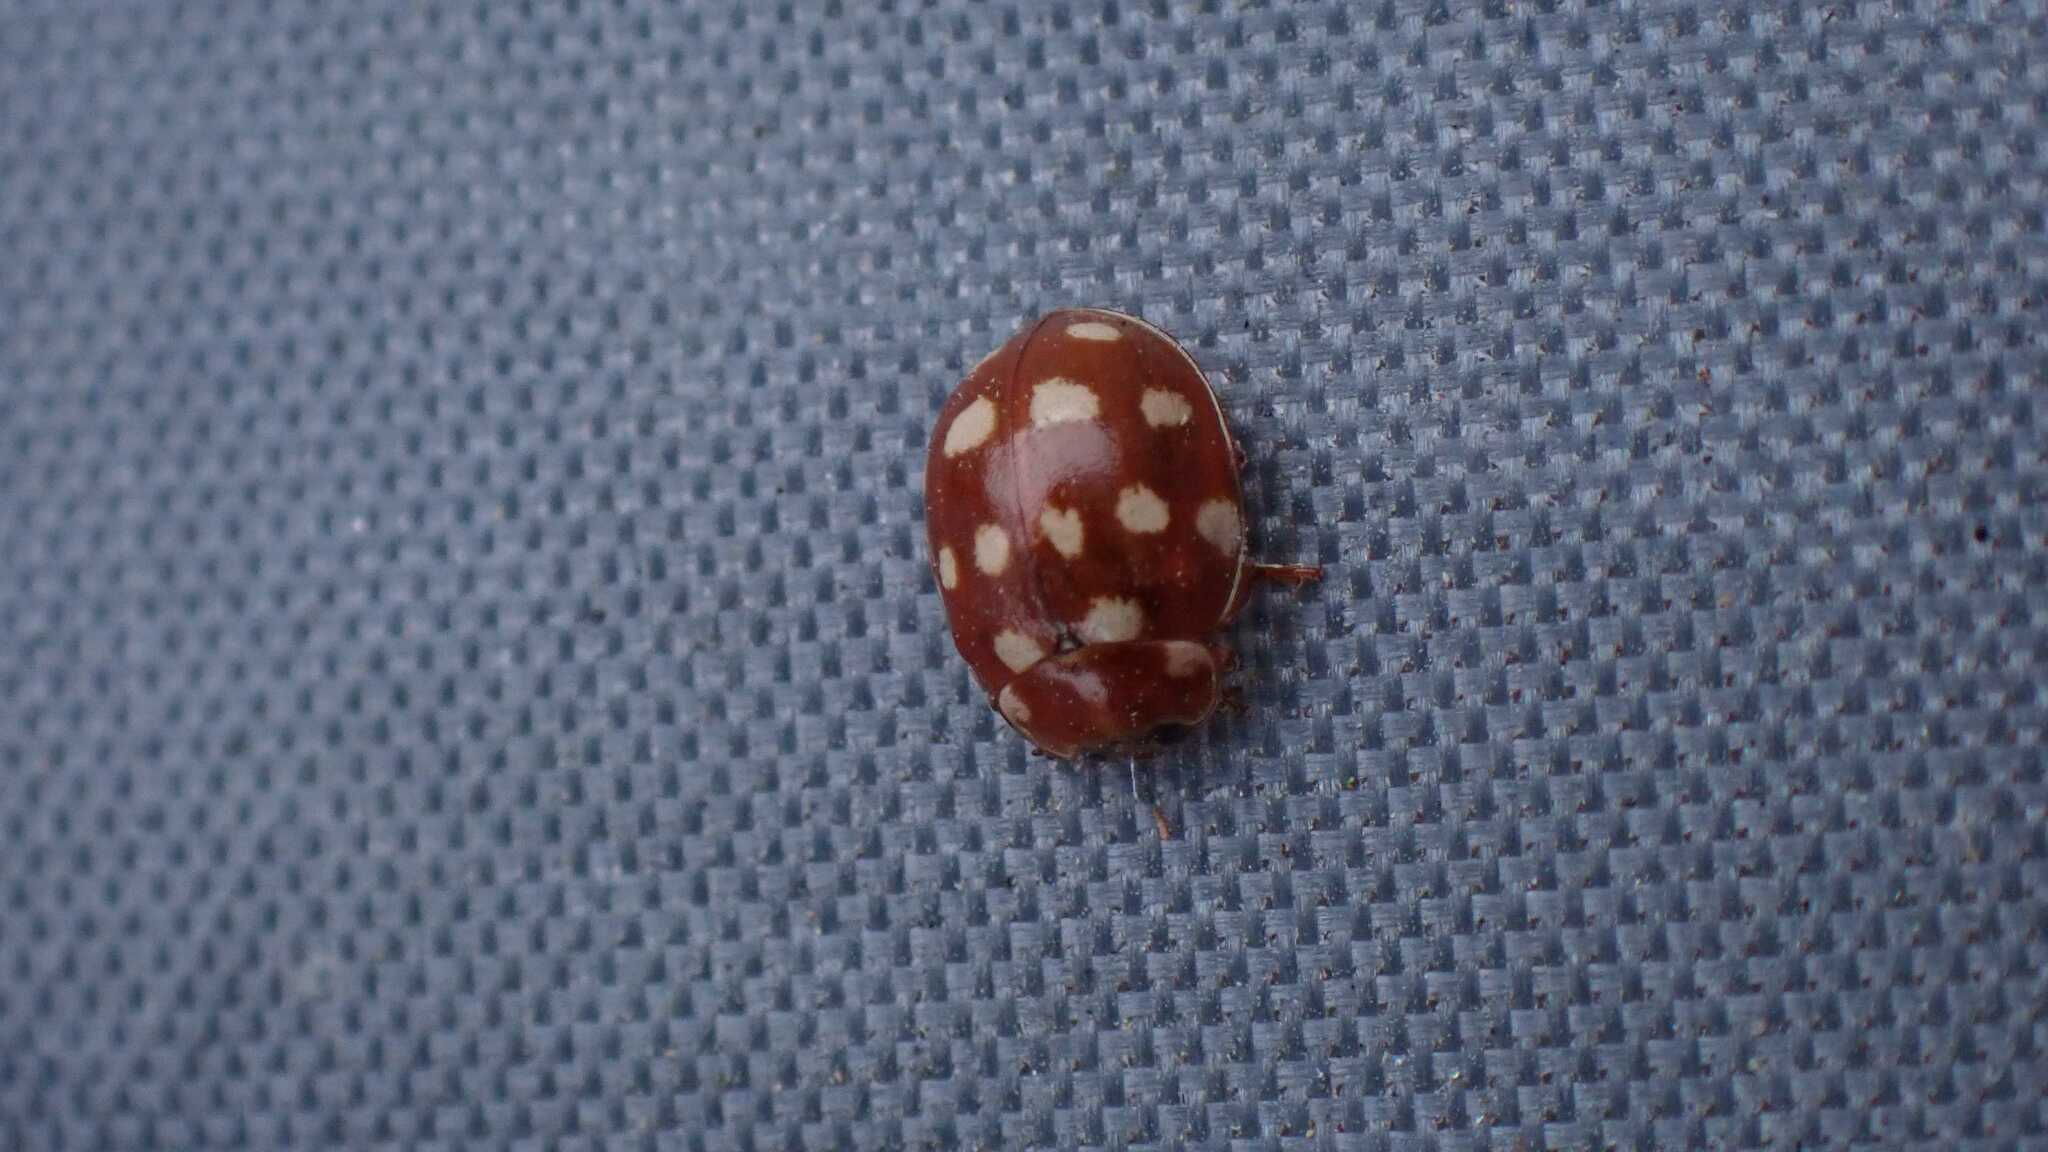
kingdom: Animalia
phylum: Arthropoda
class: Insecta
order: Coleoptera
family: Coccinellidae
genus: Calvia
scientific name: Calvia quatuordecimguttata
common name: Cream-spot ladybird
